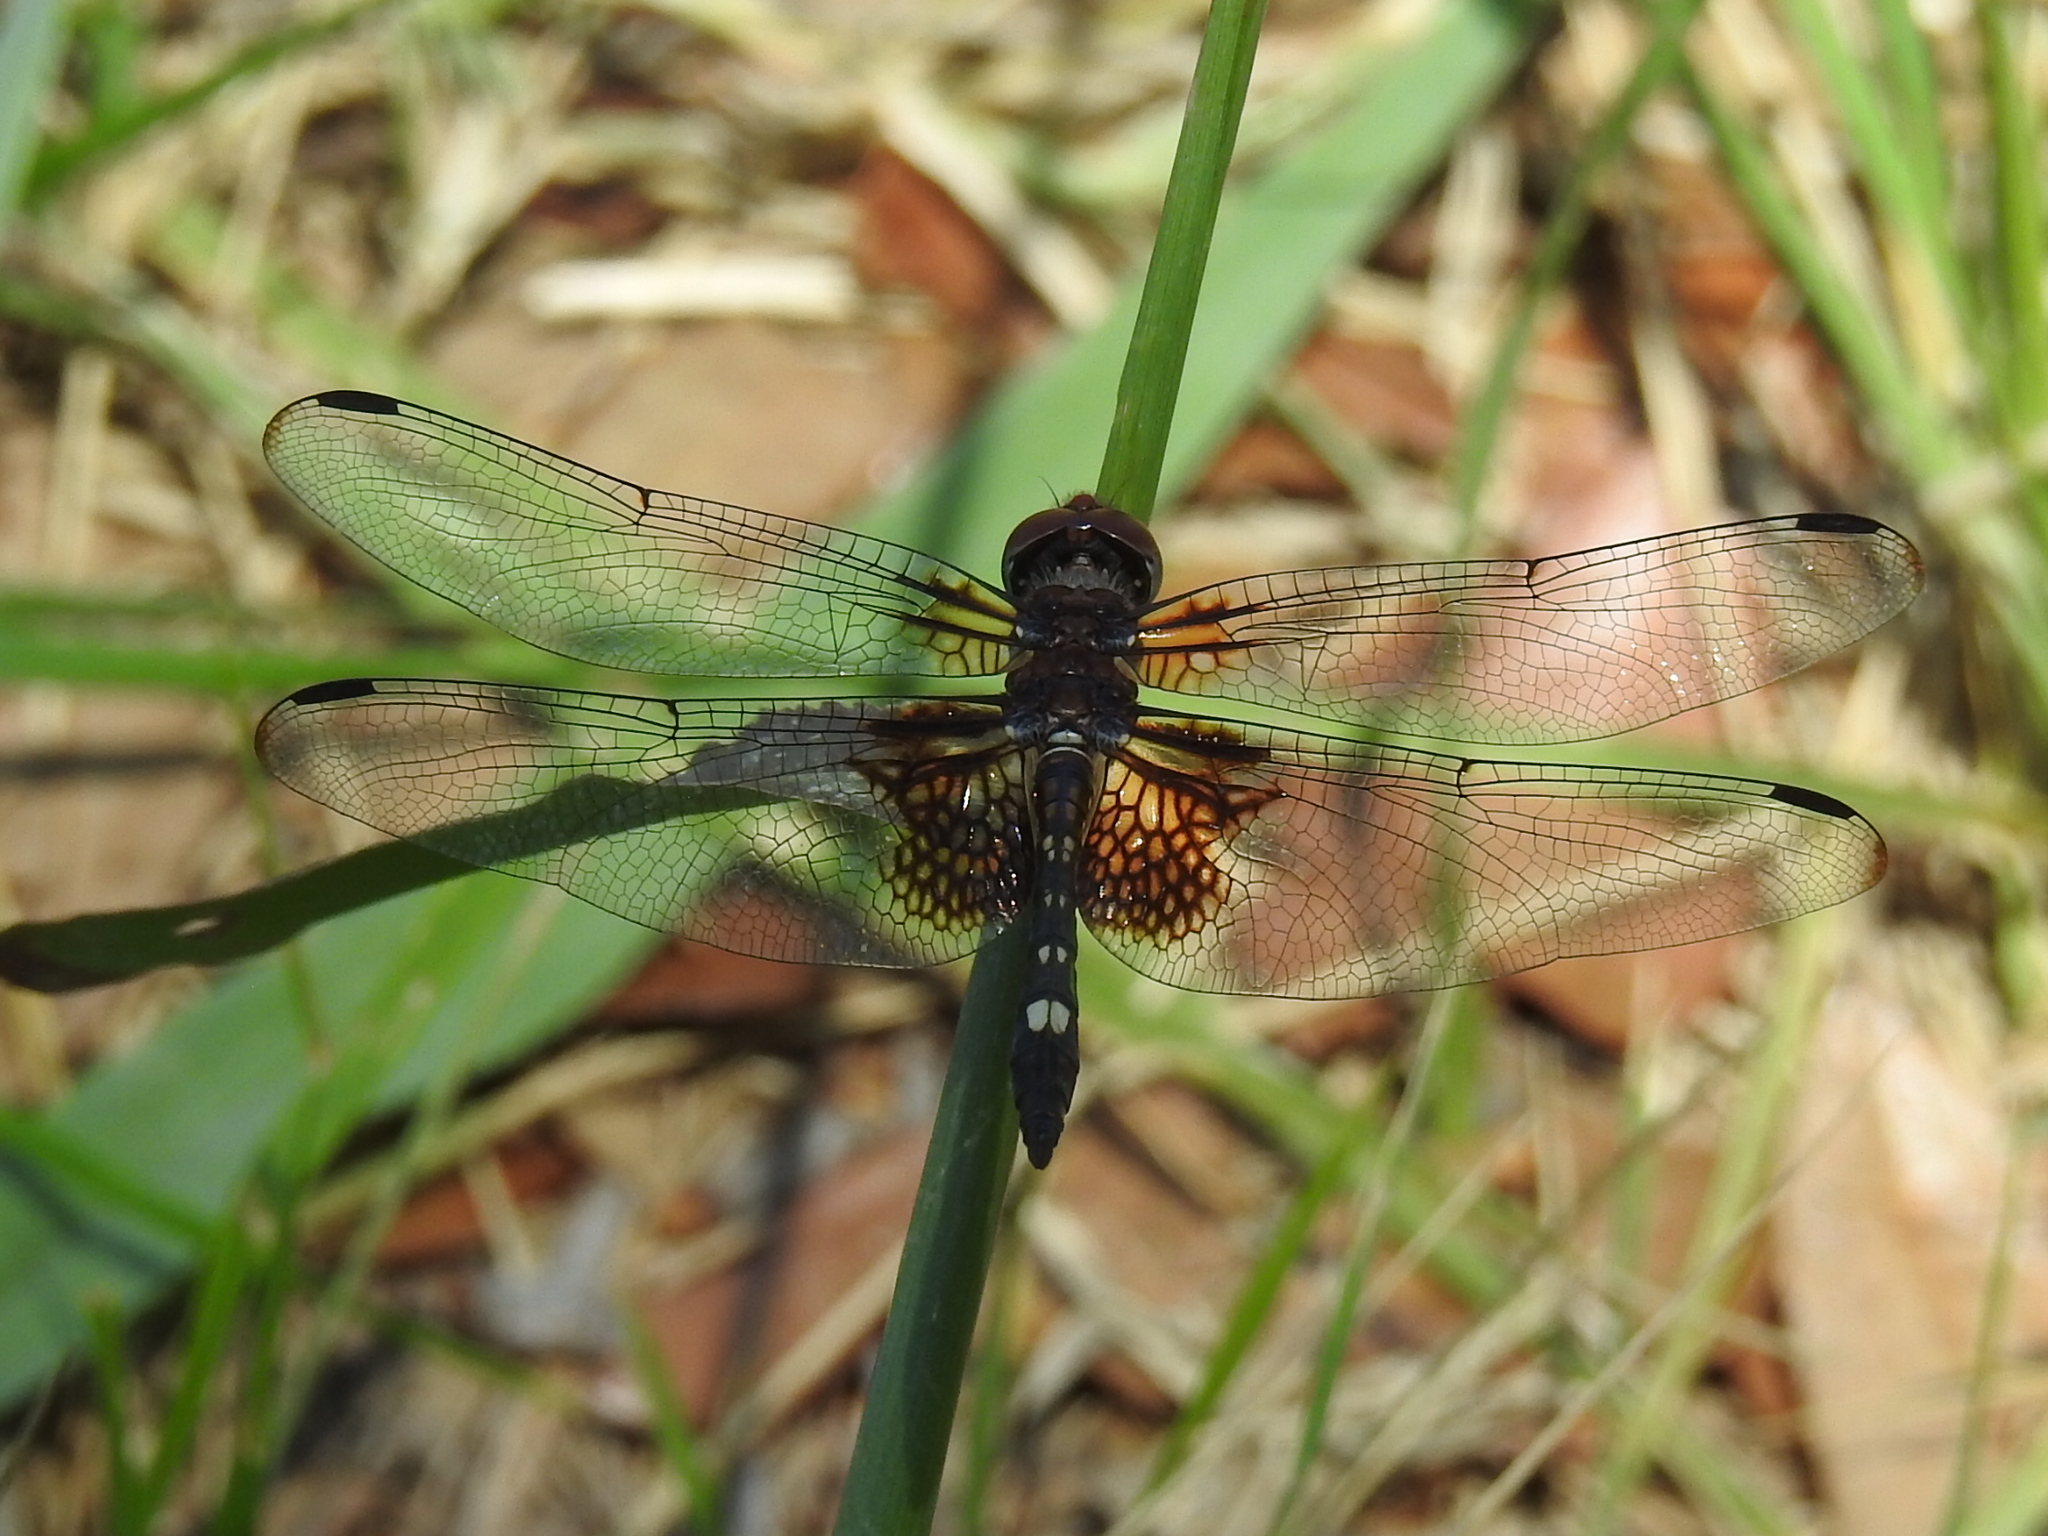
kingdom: Animalia
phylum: Arthropoda
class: Insecta
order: Odonata
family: Libellulidae
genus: Dythemis
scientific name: Dythemis fugax
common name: Checkered setwing
